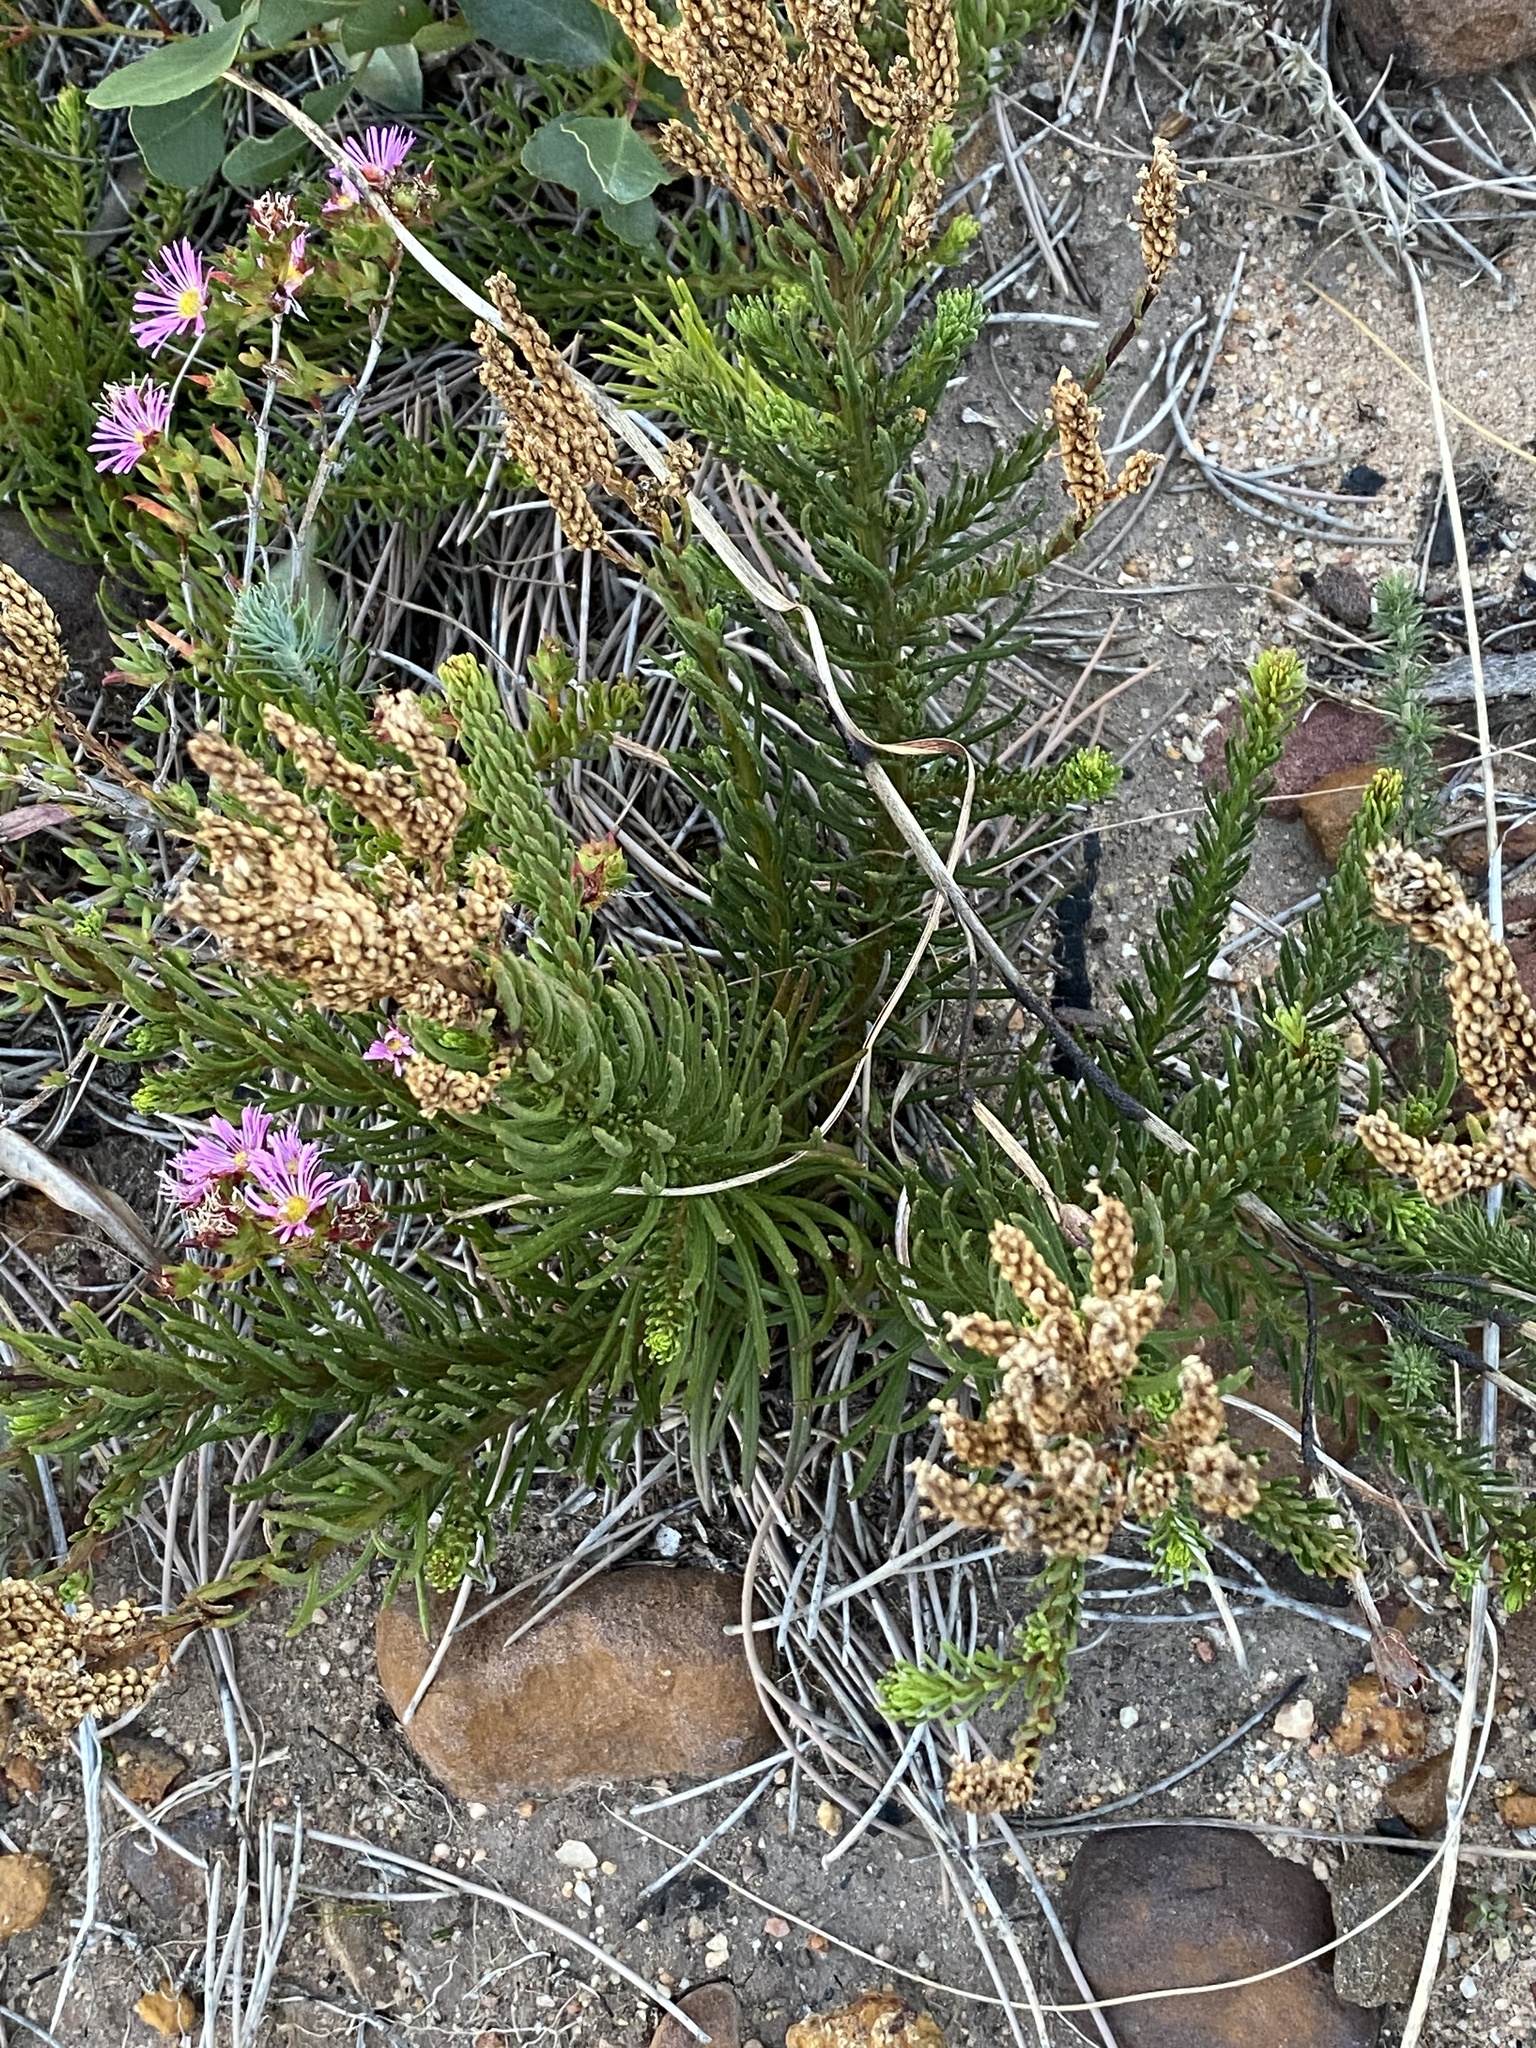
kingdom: Plantae
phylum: Tracheophyta
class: Magnoliopsida
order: Lamiales
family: Scrophulariaceae
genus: Pseudoselago
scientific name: Pseudoselago spuria
